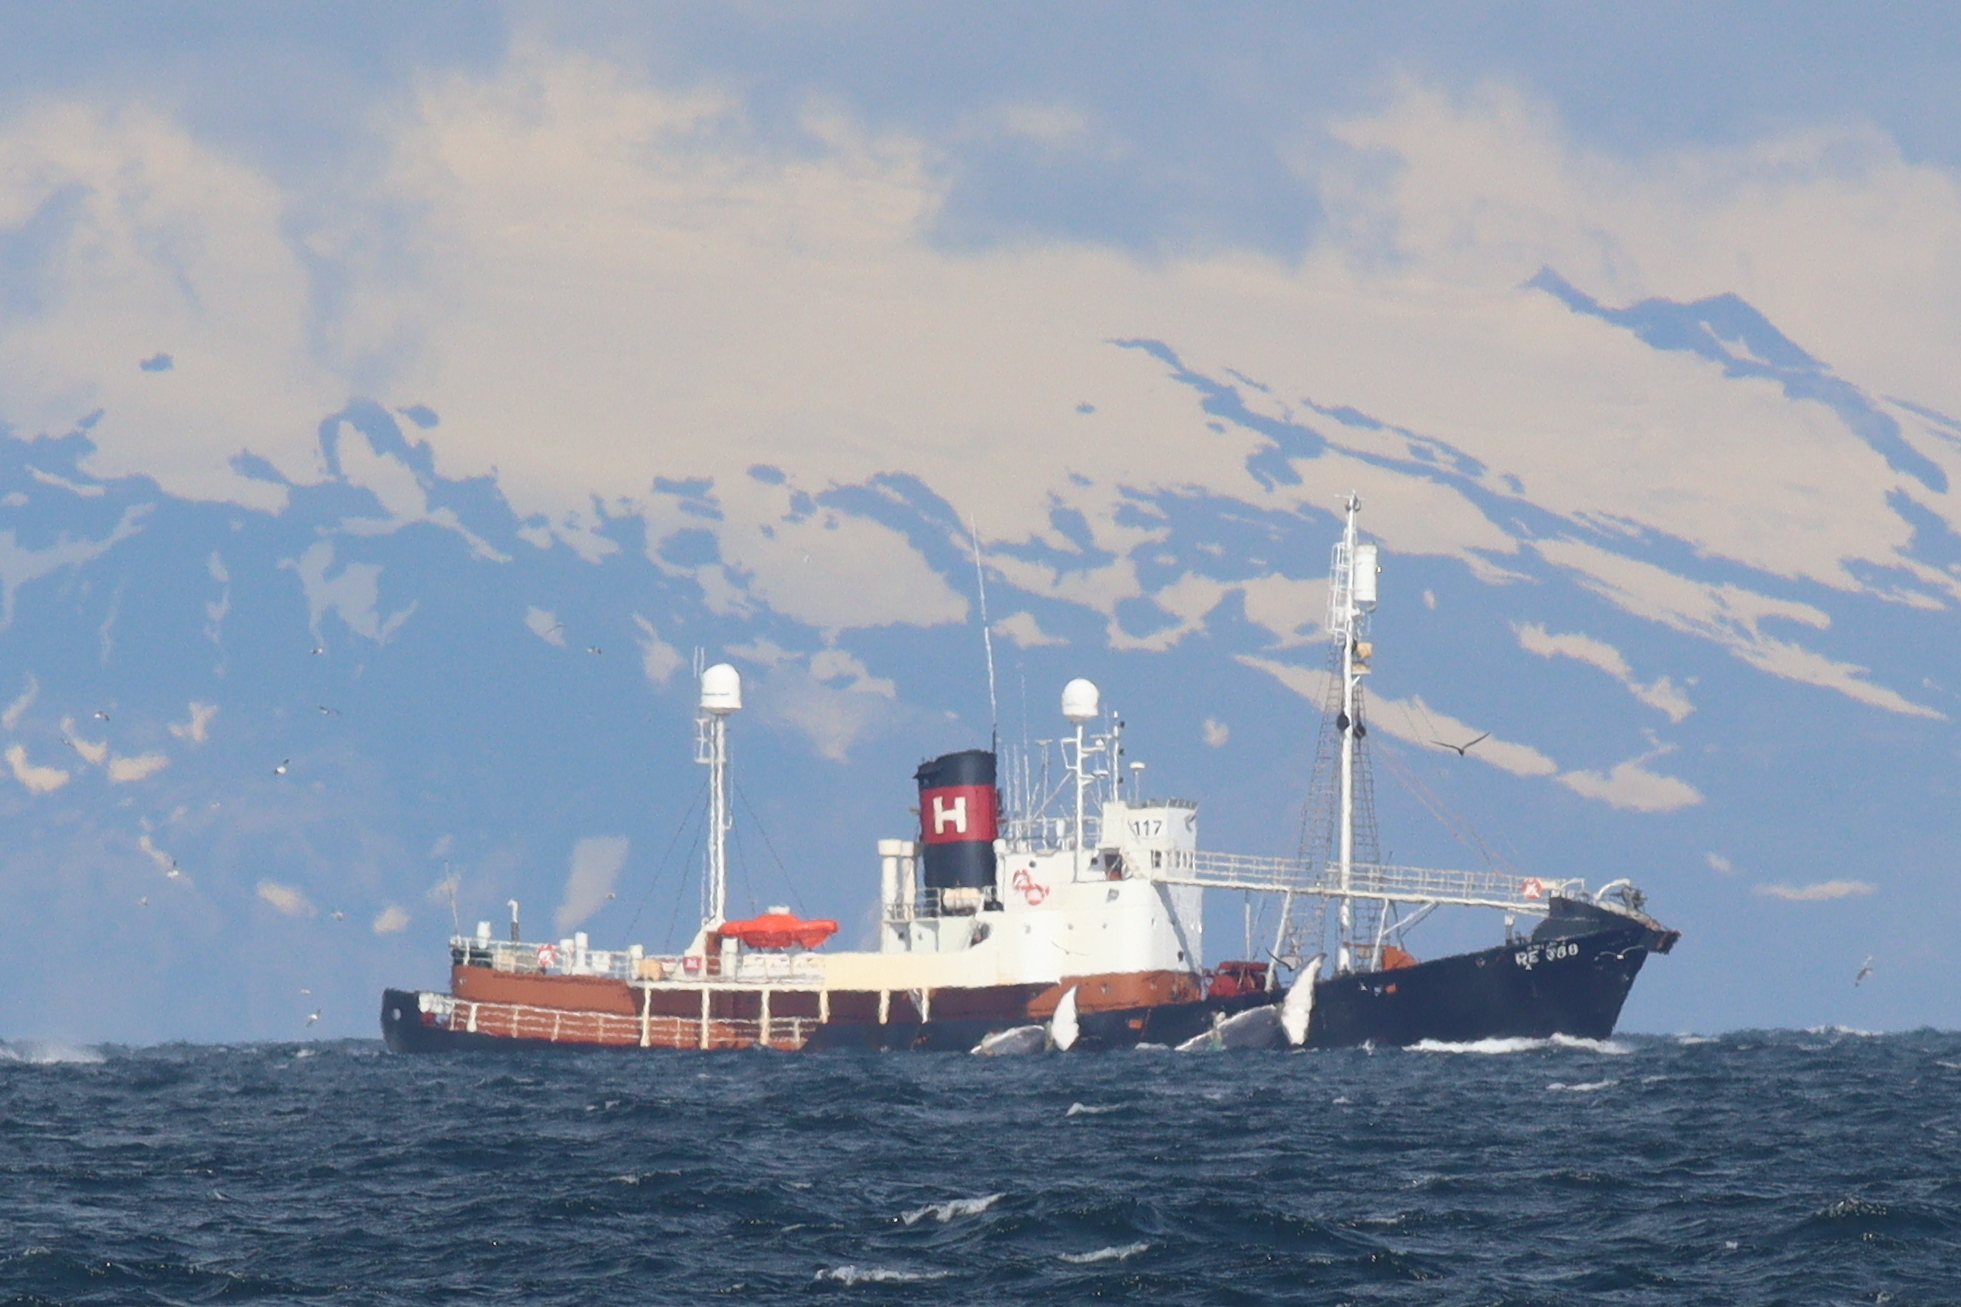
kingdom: Animalia
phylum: Chordata
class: Mammalia
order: Cetacea
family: Balaenopteridae
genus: Balaenoptera
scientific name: Balaenoptera physalus
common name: Fin whale
